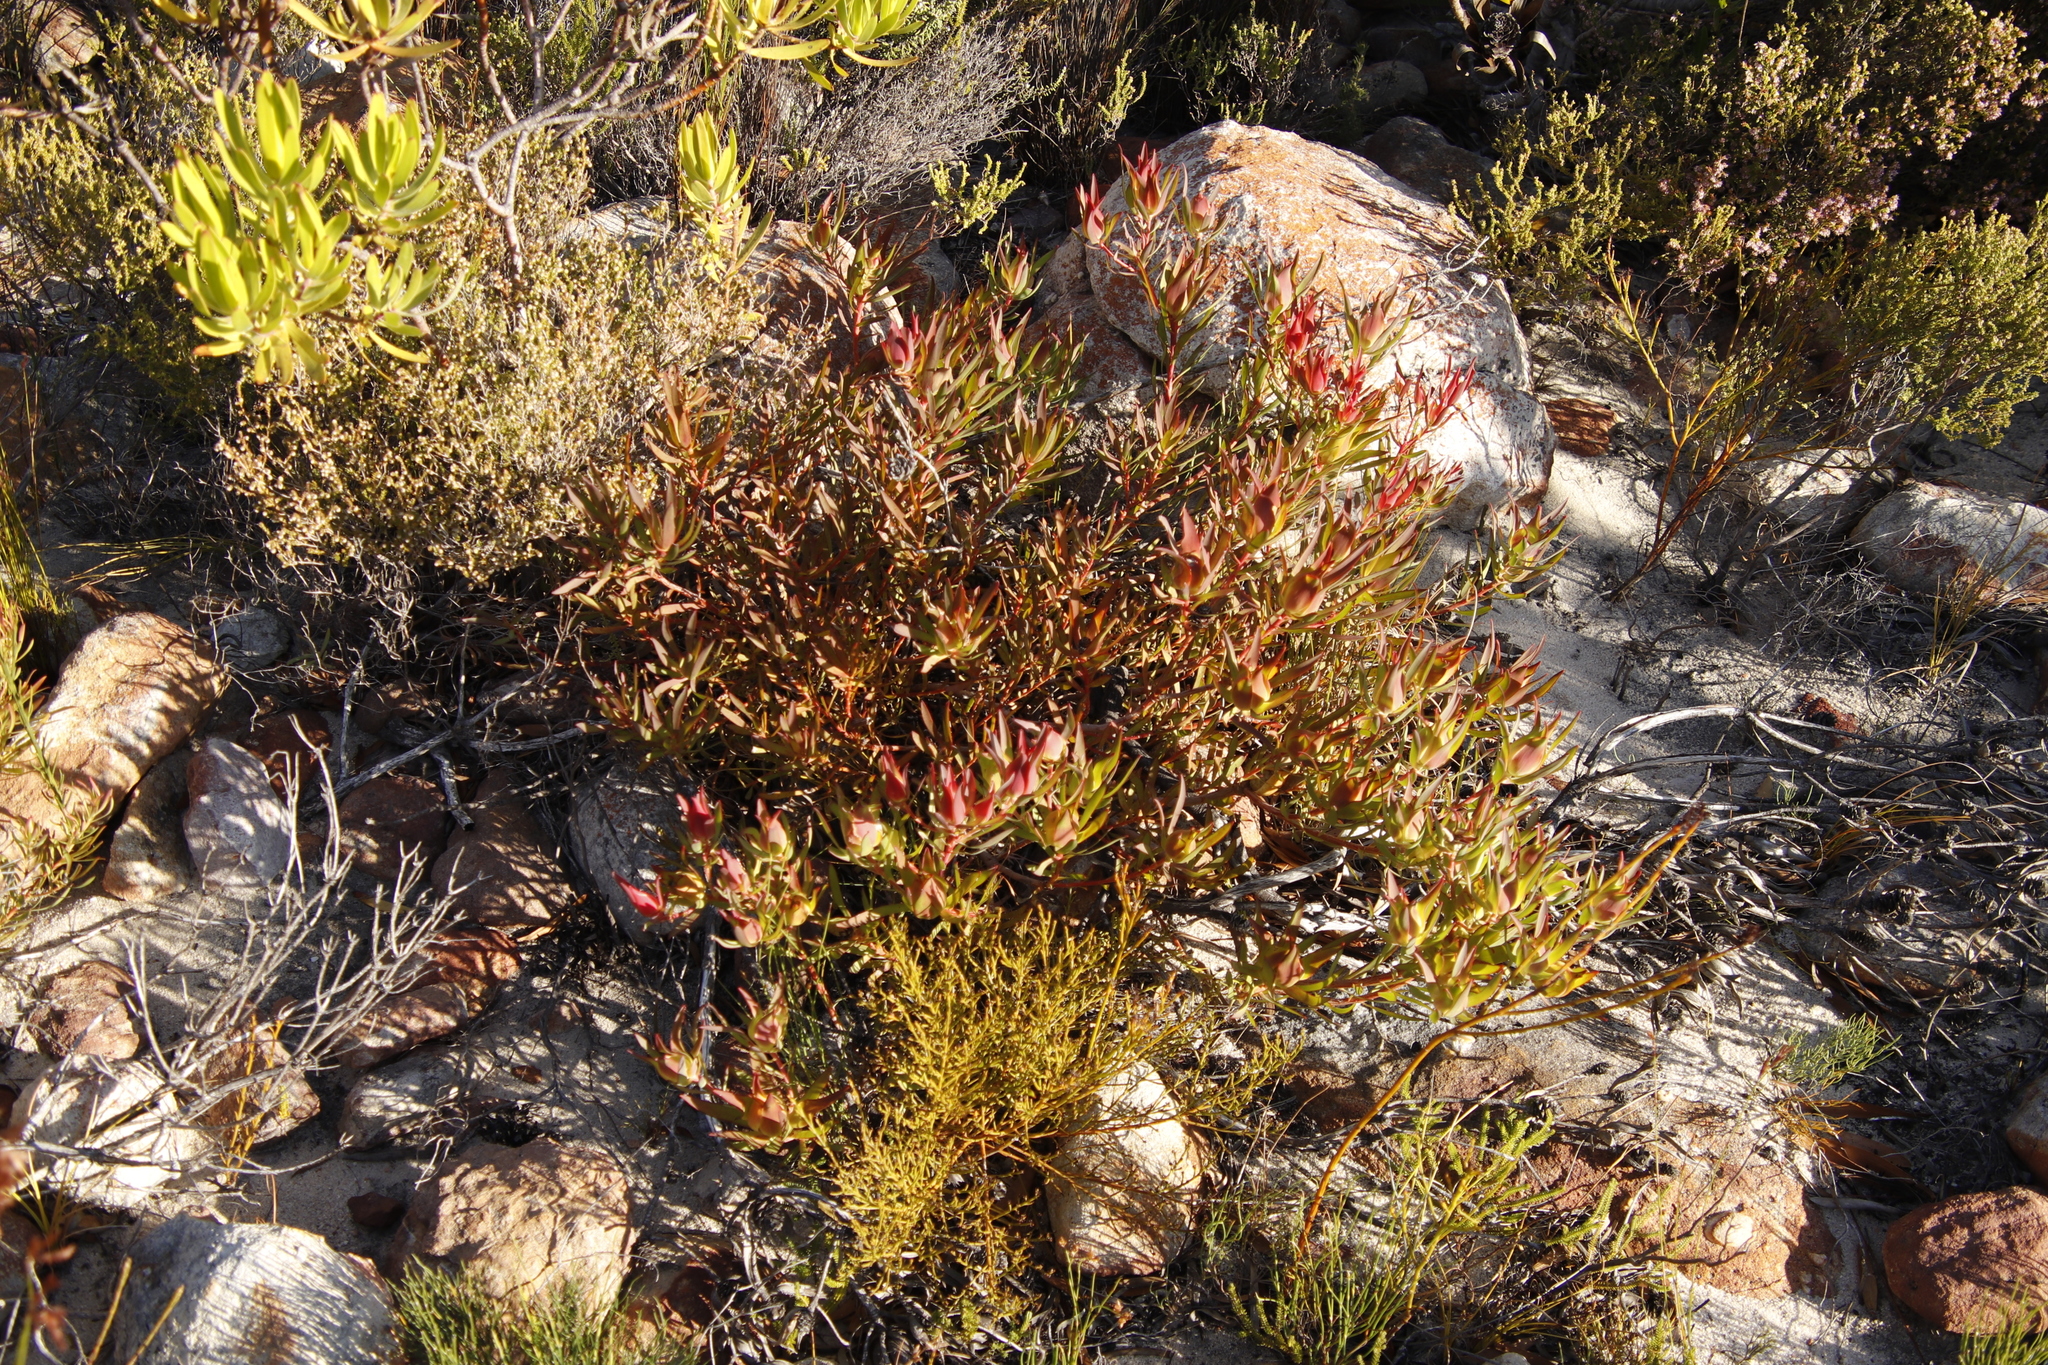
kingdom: Plantae
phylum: Tracheophyta
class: Magnoliopsida
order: Proteales
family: Proteaceae
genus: Leucadendron
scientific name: Leucadendron laureolum
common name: Golden sunshinebush
